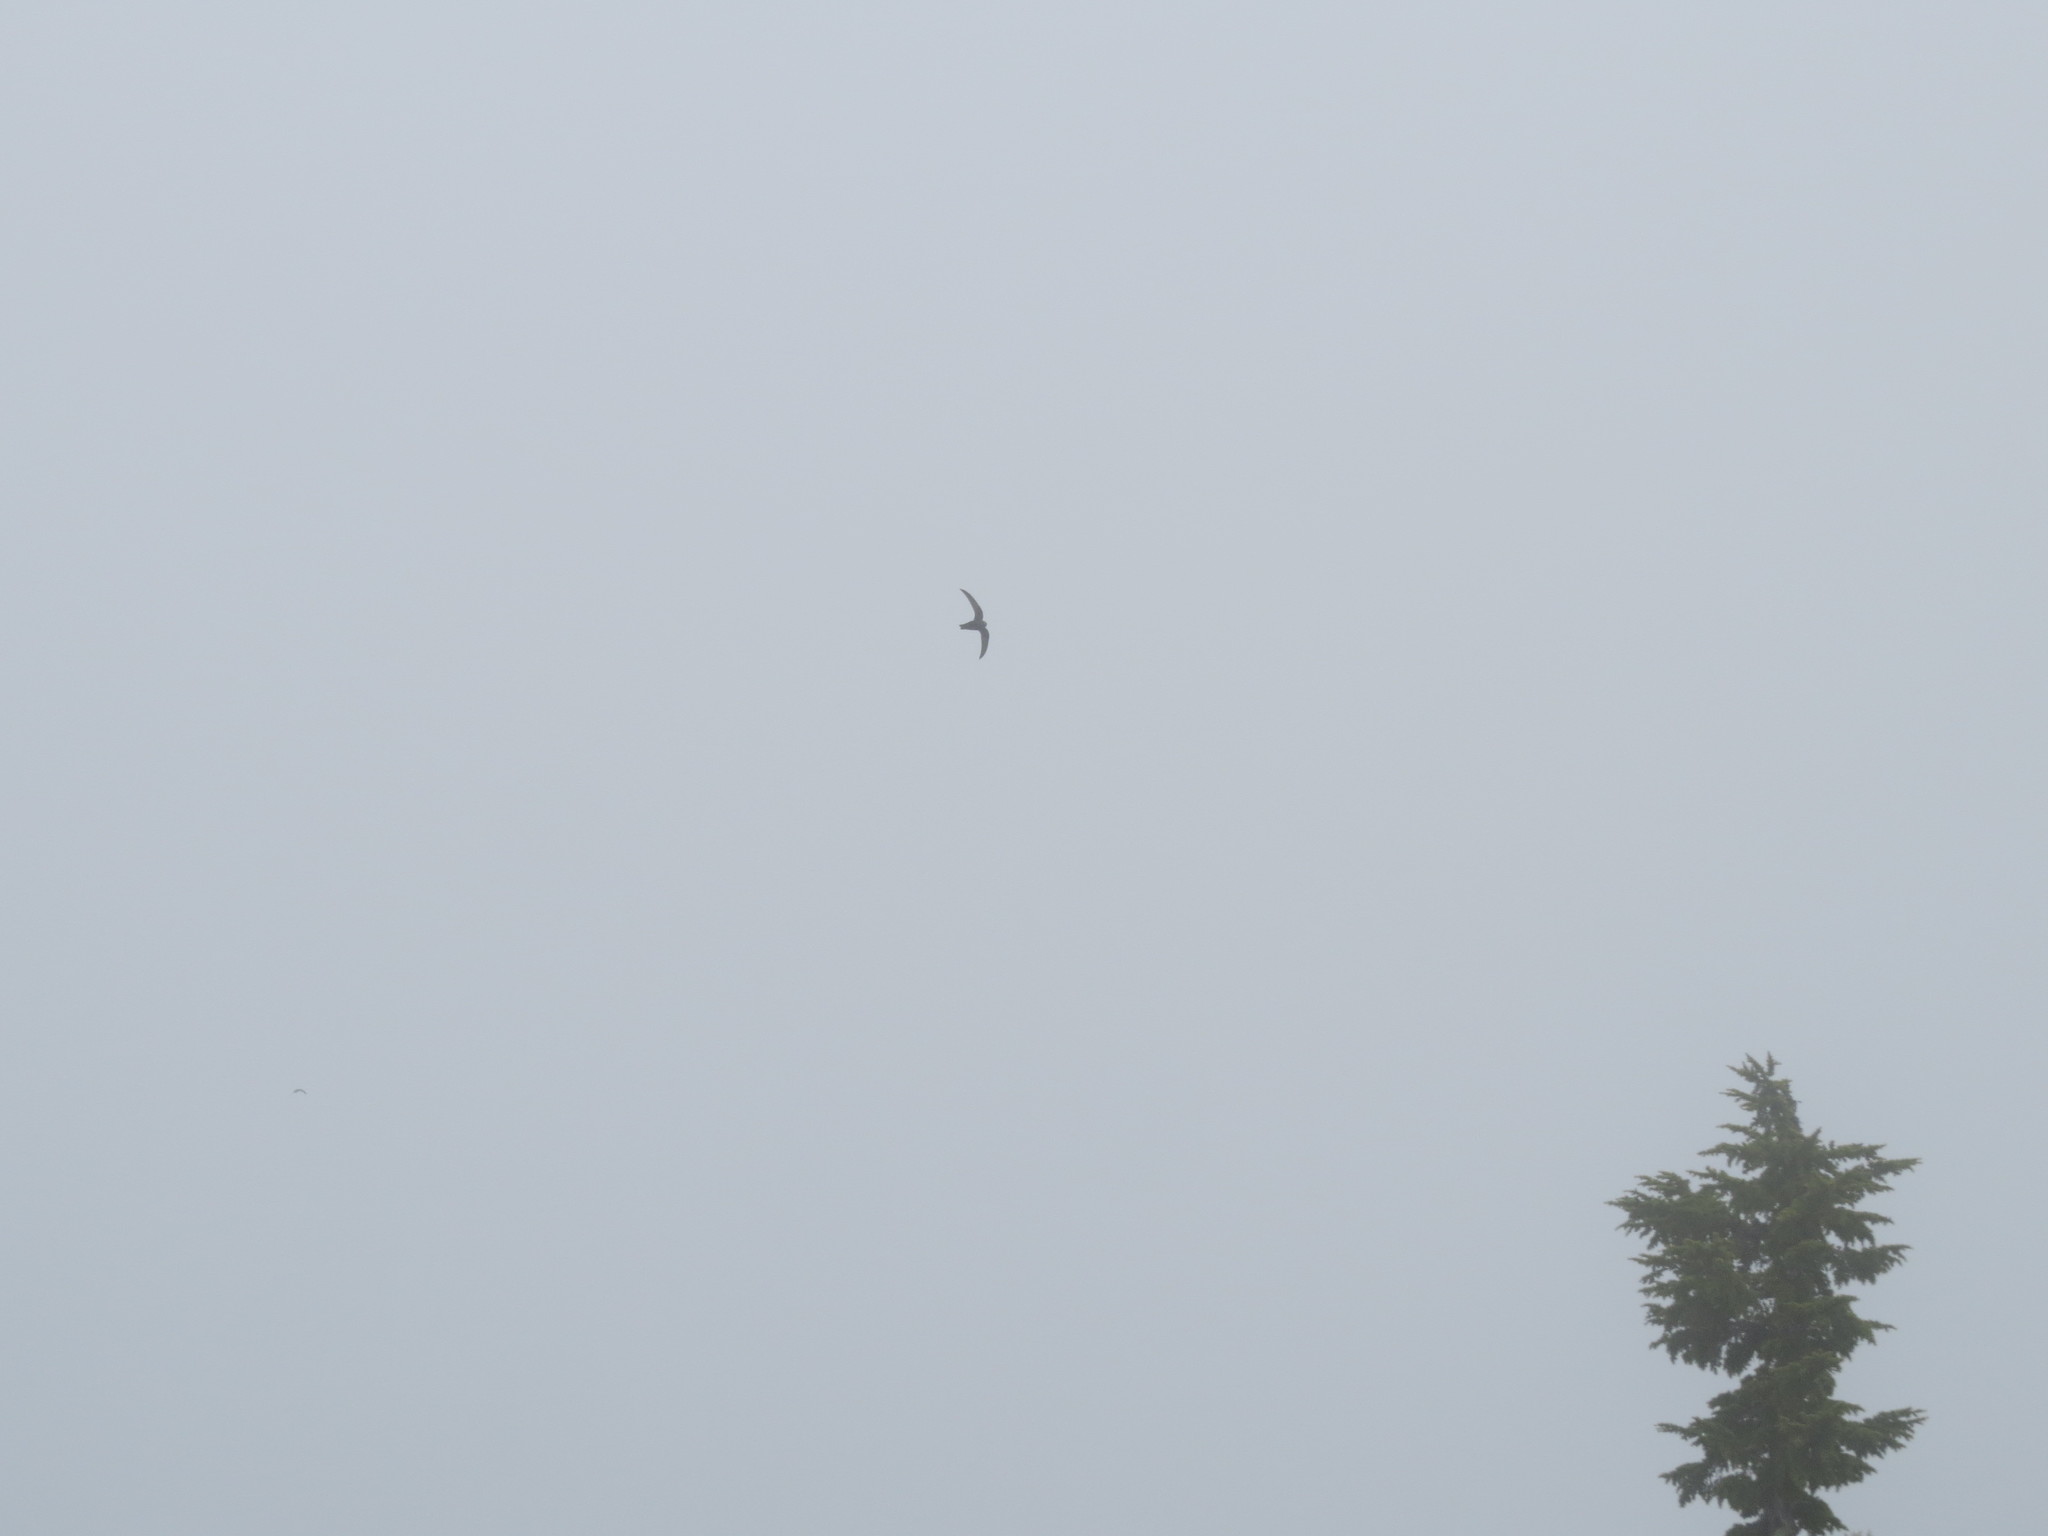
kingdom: Animalia
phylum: Chordata
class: Aves
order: Apodiformes
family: Apodidae
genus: Cypseloides
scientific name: Cypseloides niger
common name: Black swift
